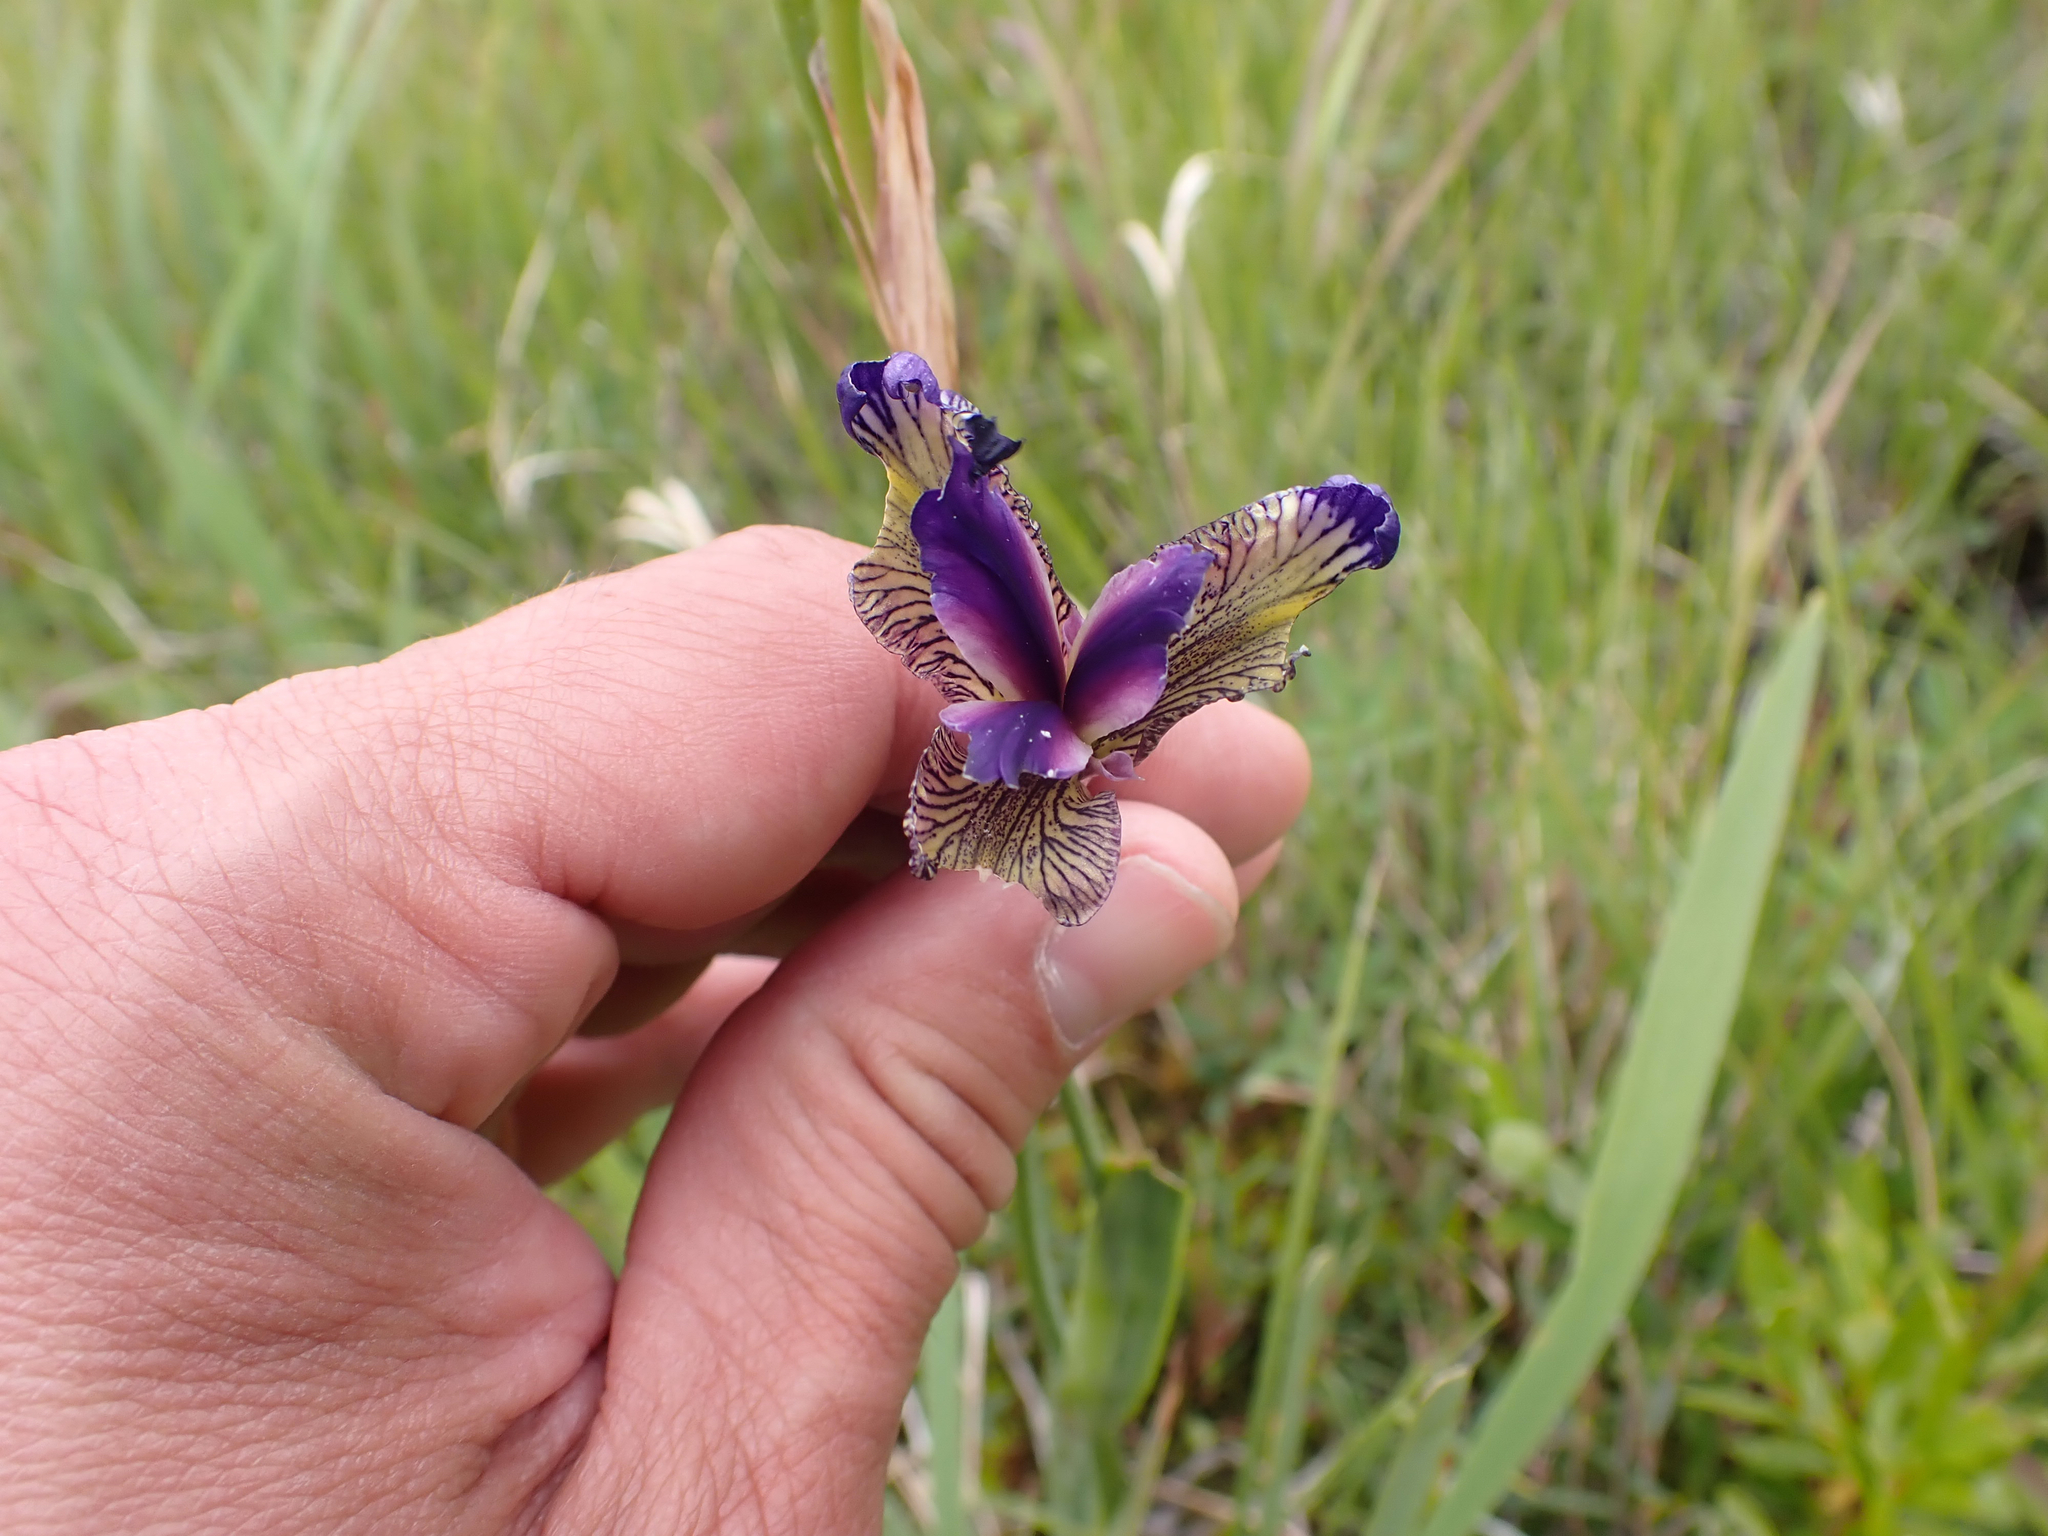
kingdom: Plantae
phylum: Tracheophyta
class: Liliopsida
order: Asparagales
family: Iridaceae
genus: Iris
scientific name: Iris setosa
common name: Arctic blue flag
